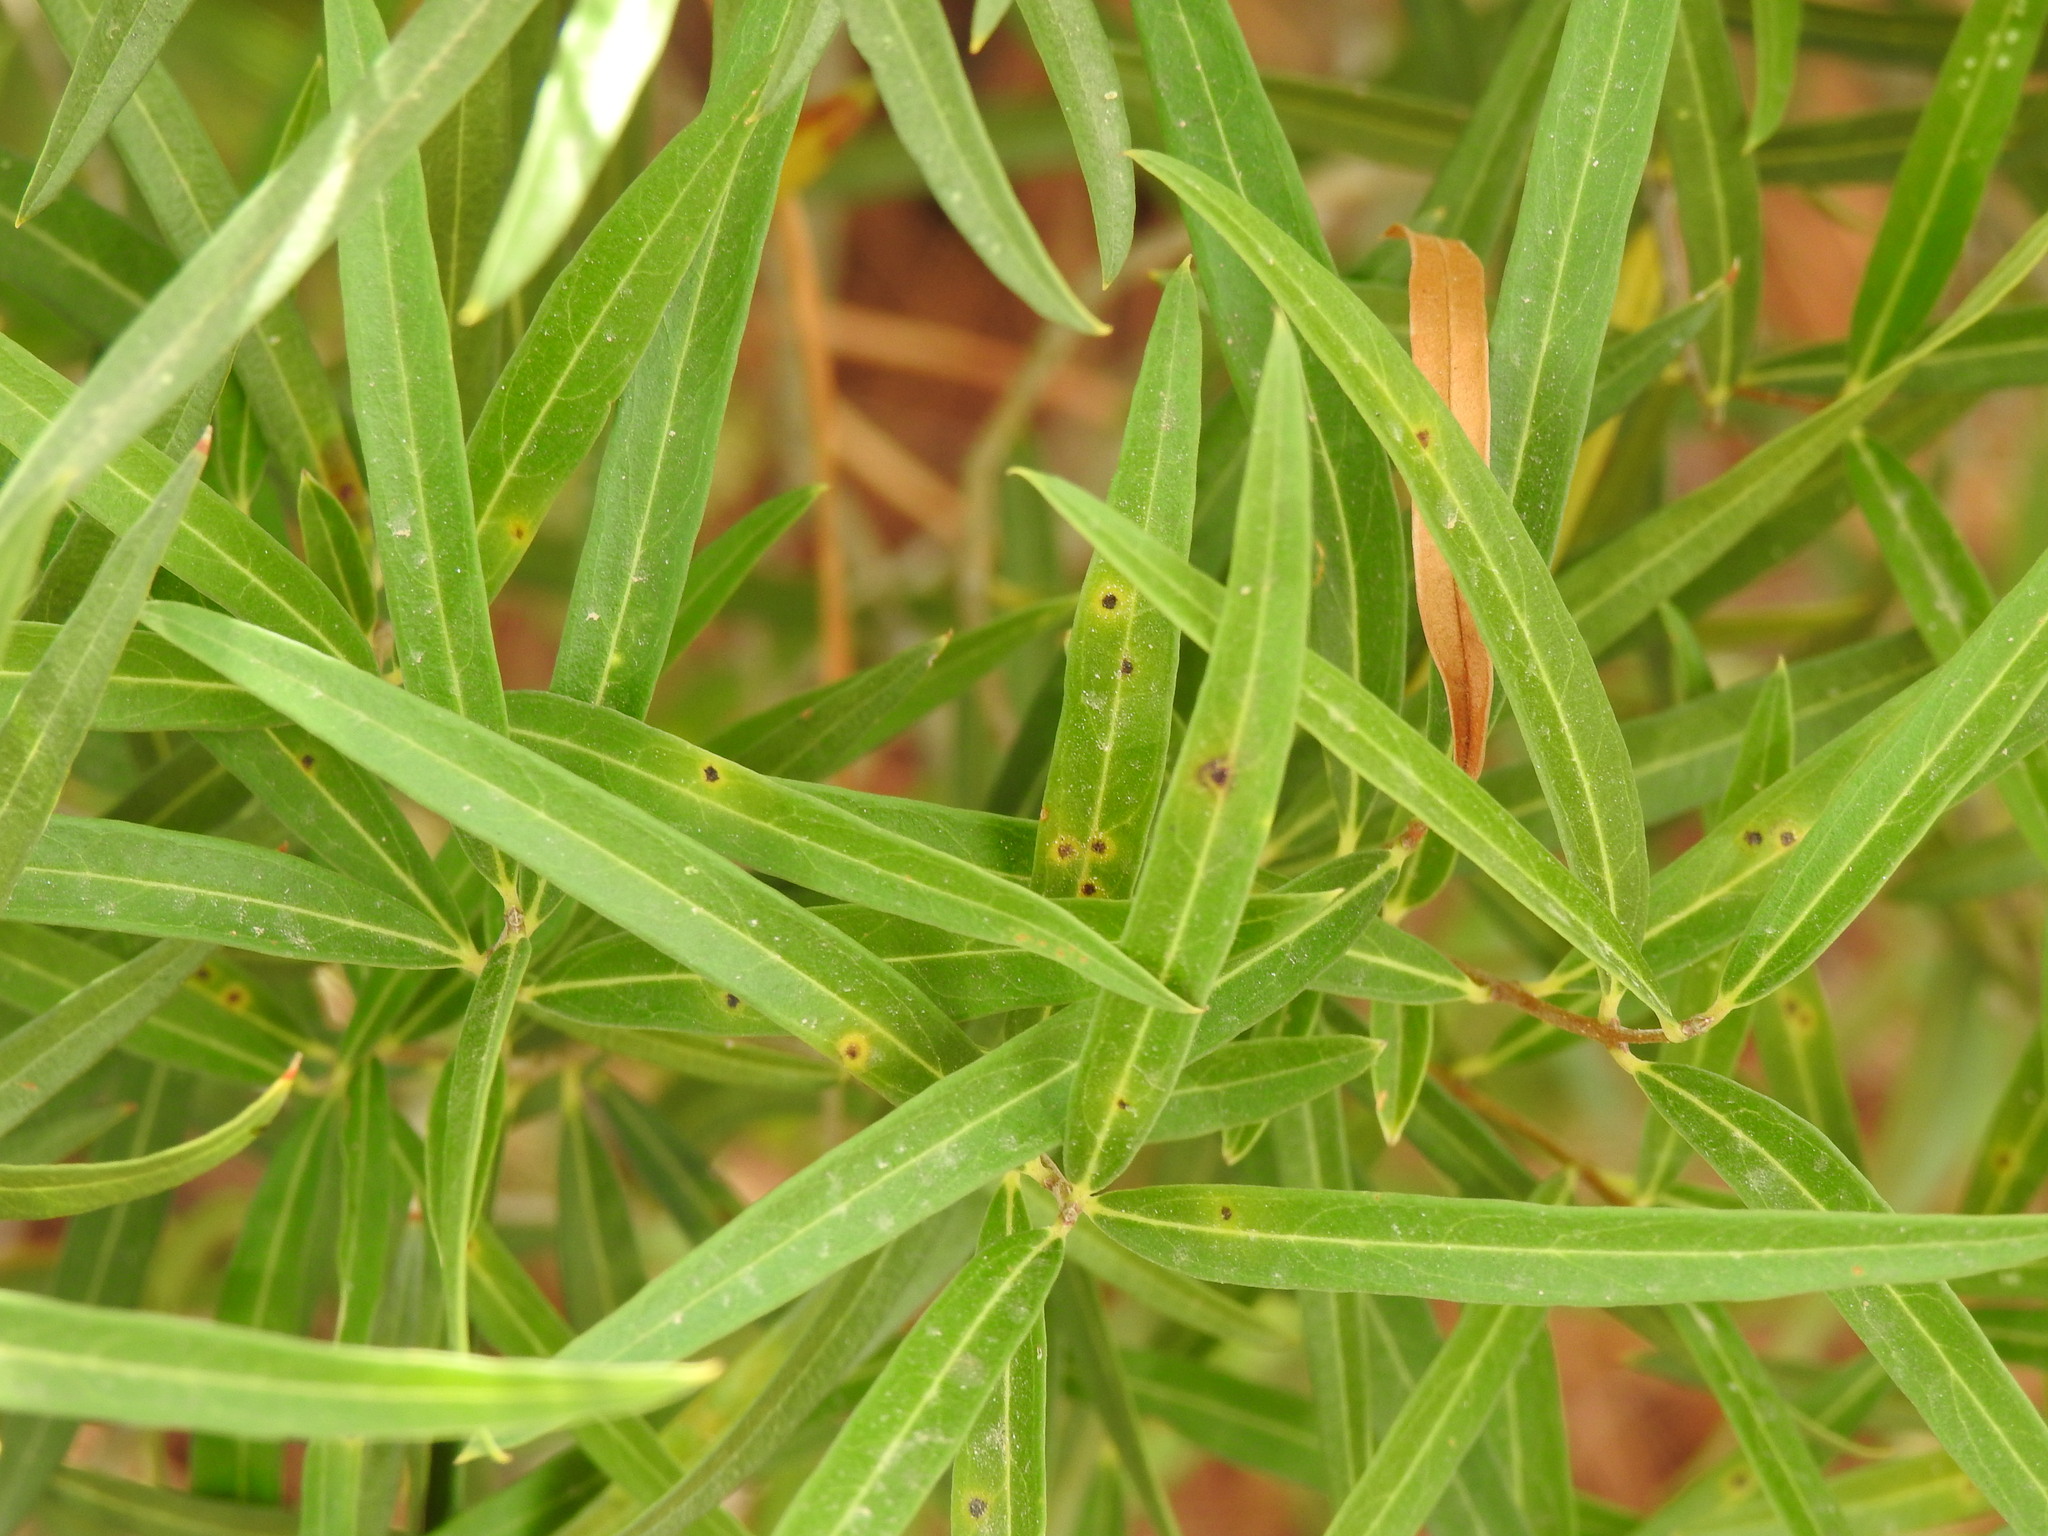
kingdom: Animalia
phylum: Arthropoda
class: Insecta
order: Diptera
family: Cecidomyiidae
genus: Braueriella
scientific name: Braueriella phillyreae
